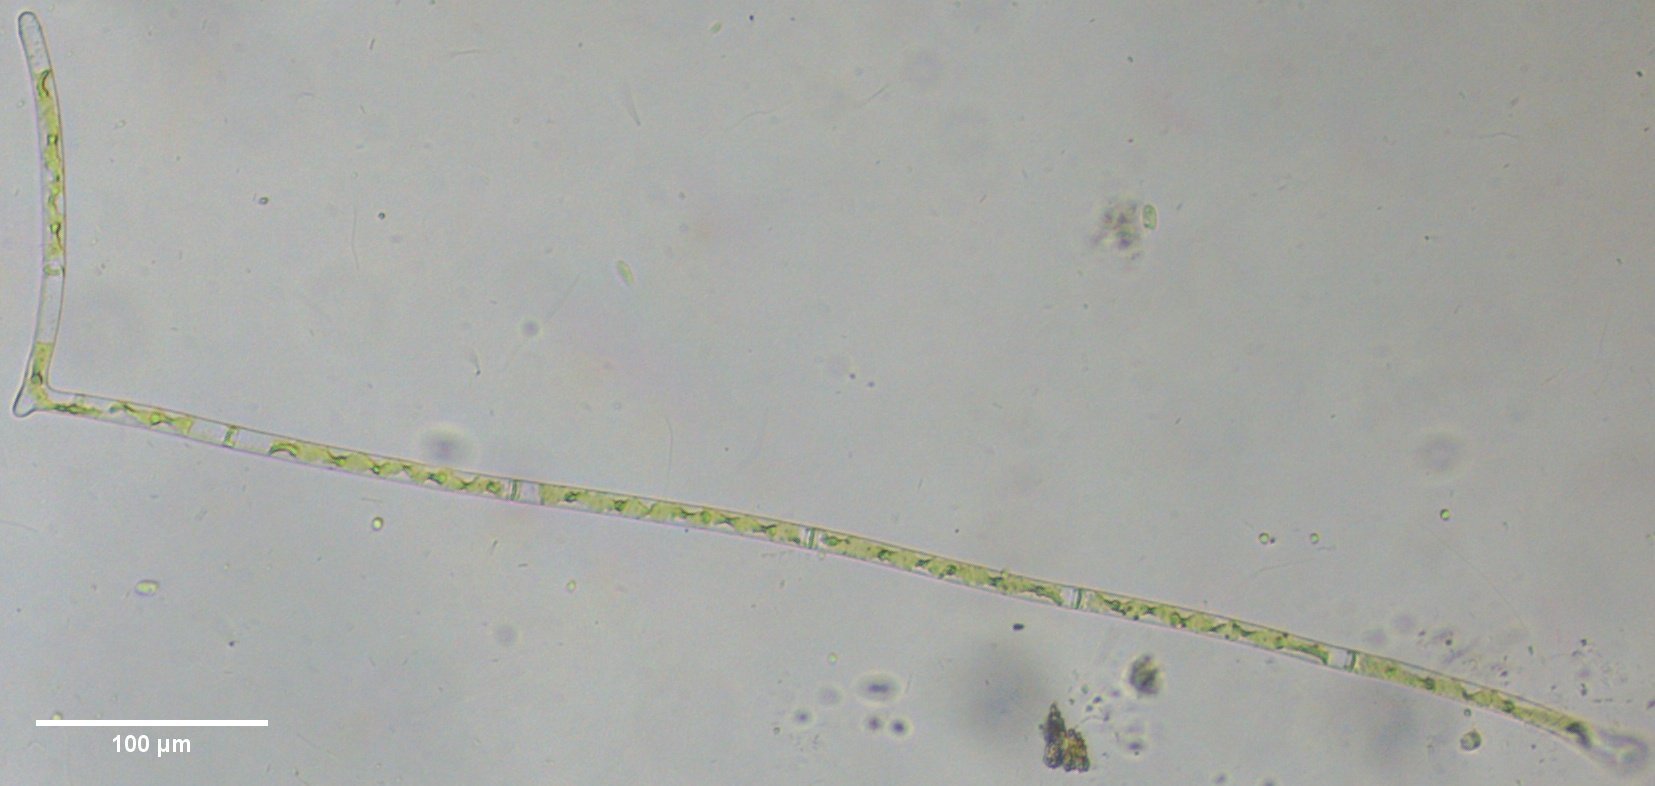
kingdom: Plantae
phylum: Charophyta
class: Zygnematophyceae
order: Zygnematales
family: Zygnemataceae
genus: Spirogyra
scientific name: Spirogyra
